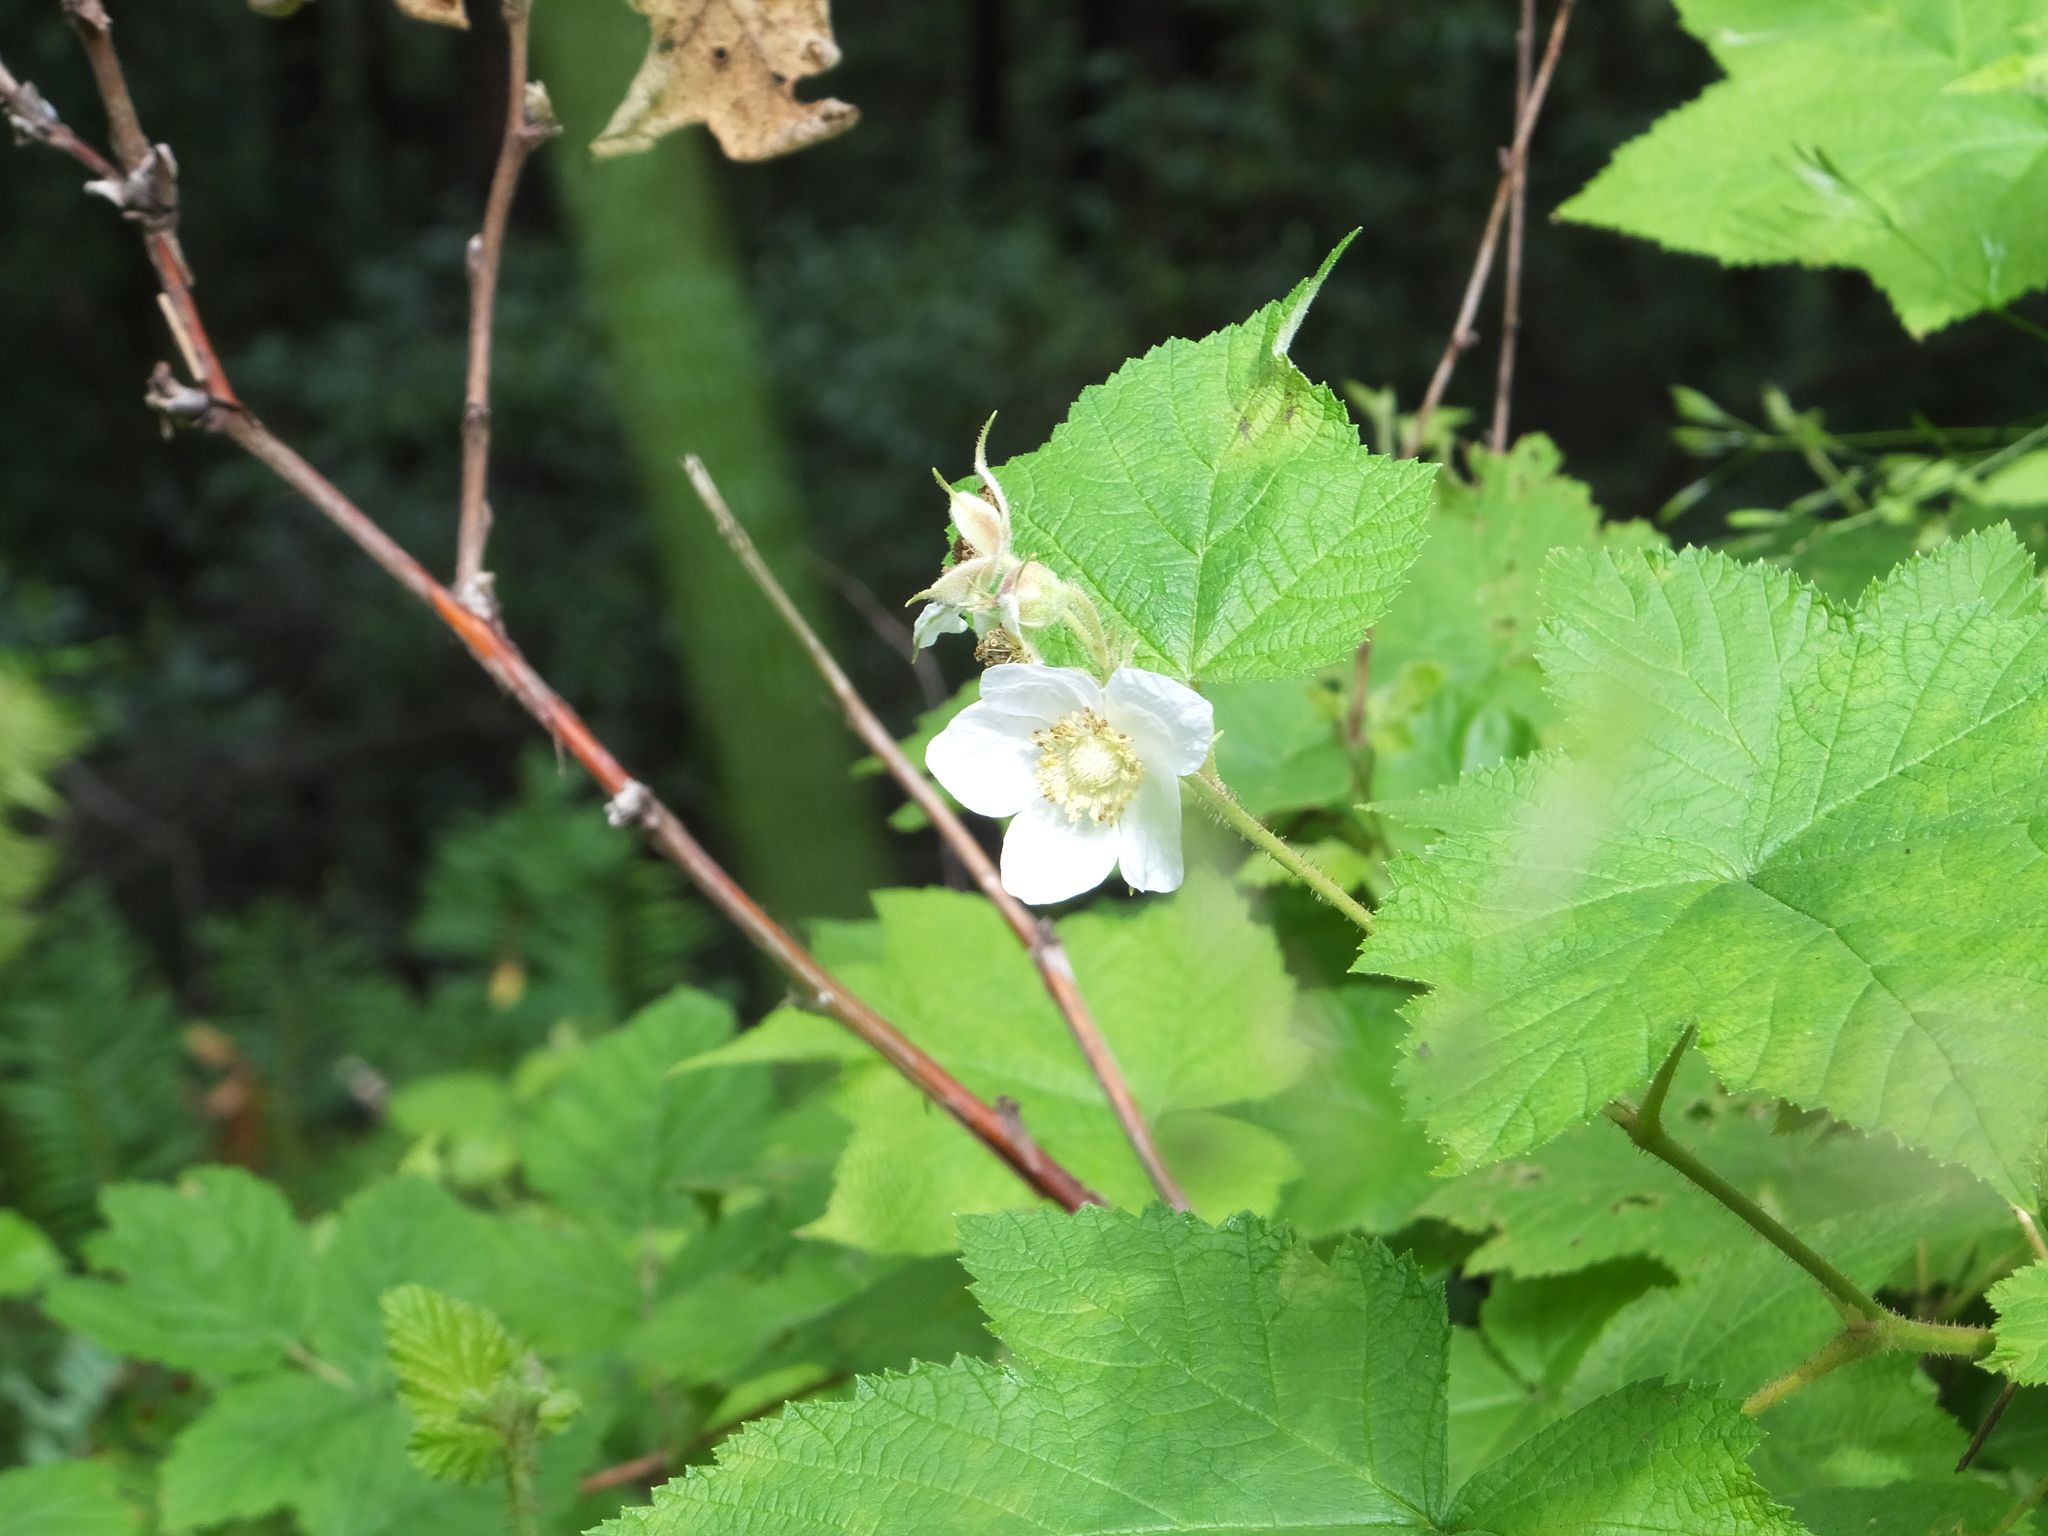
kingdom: Plantae
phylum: Tracheophyta
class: Magnoliopsida
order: Rosales
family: Rosaceae
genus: Rubus
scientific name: Rubus parviflorus
